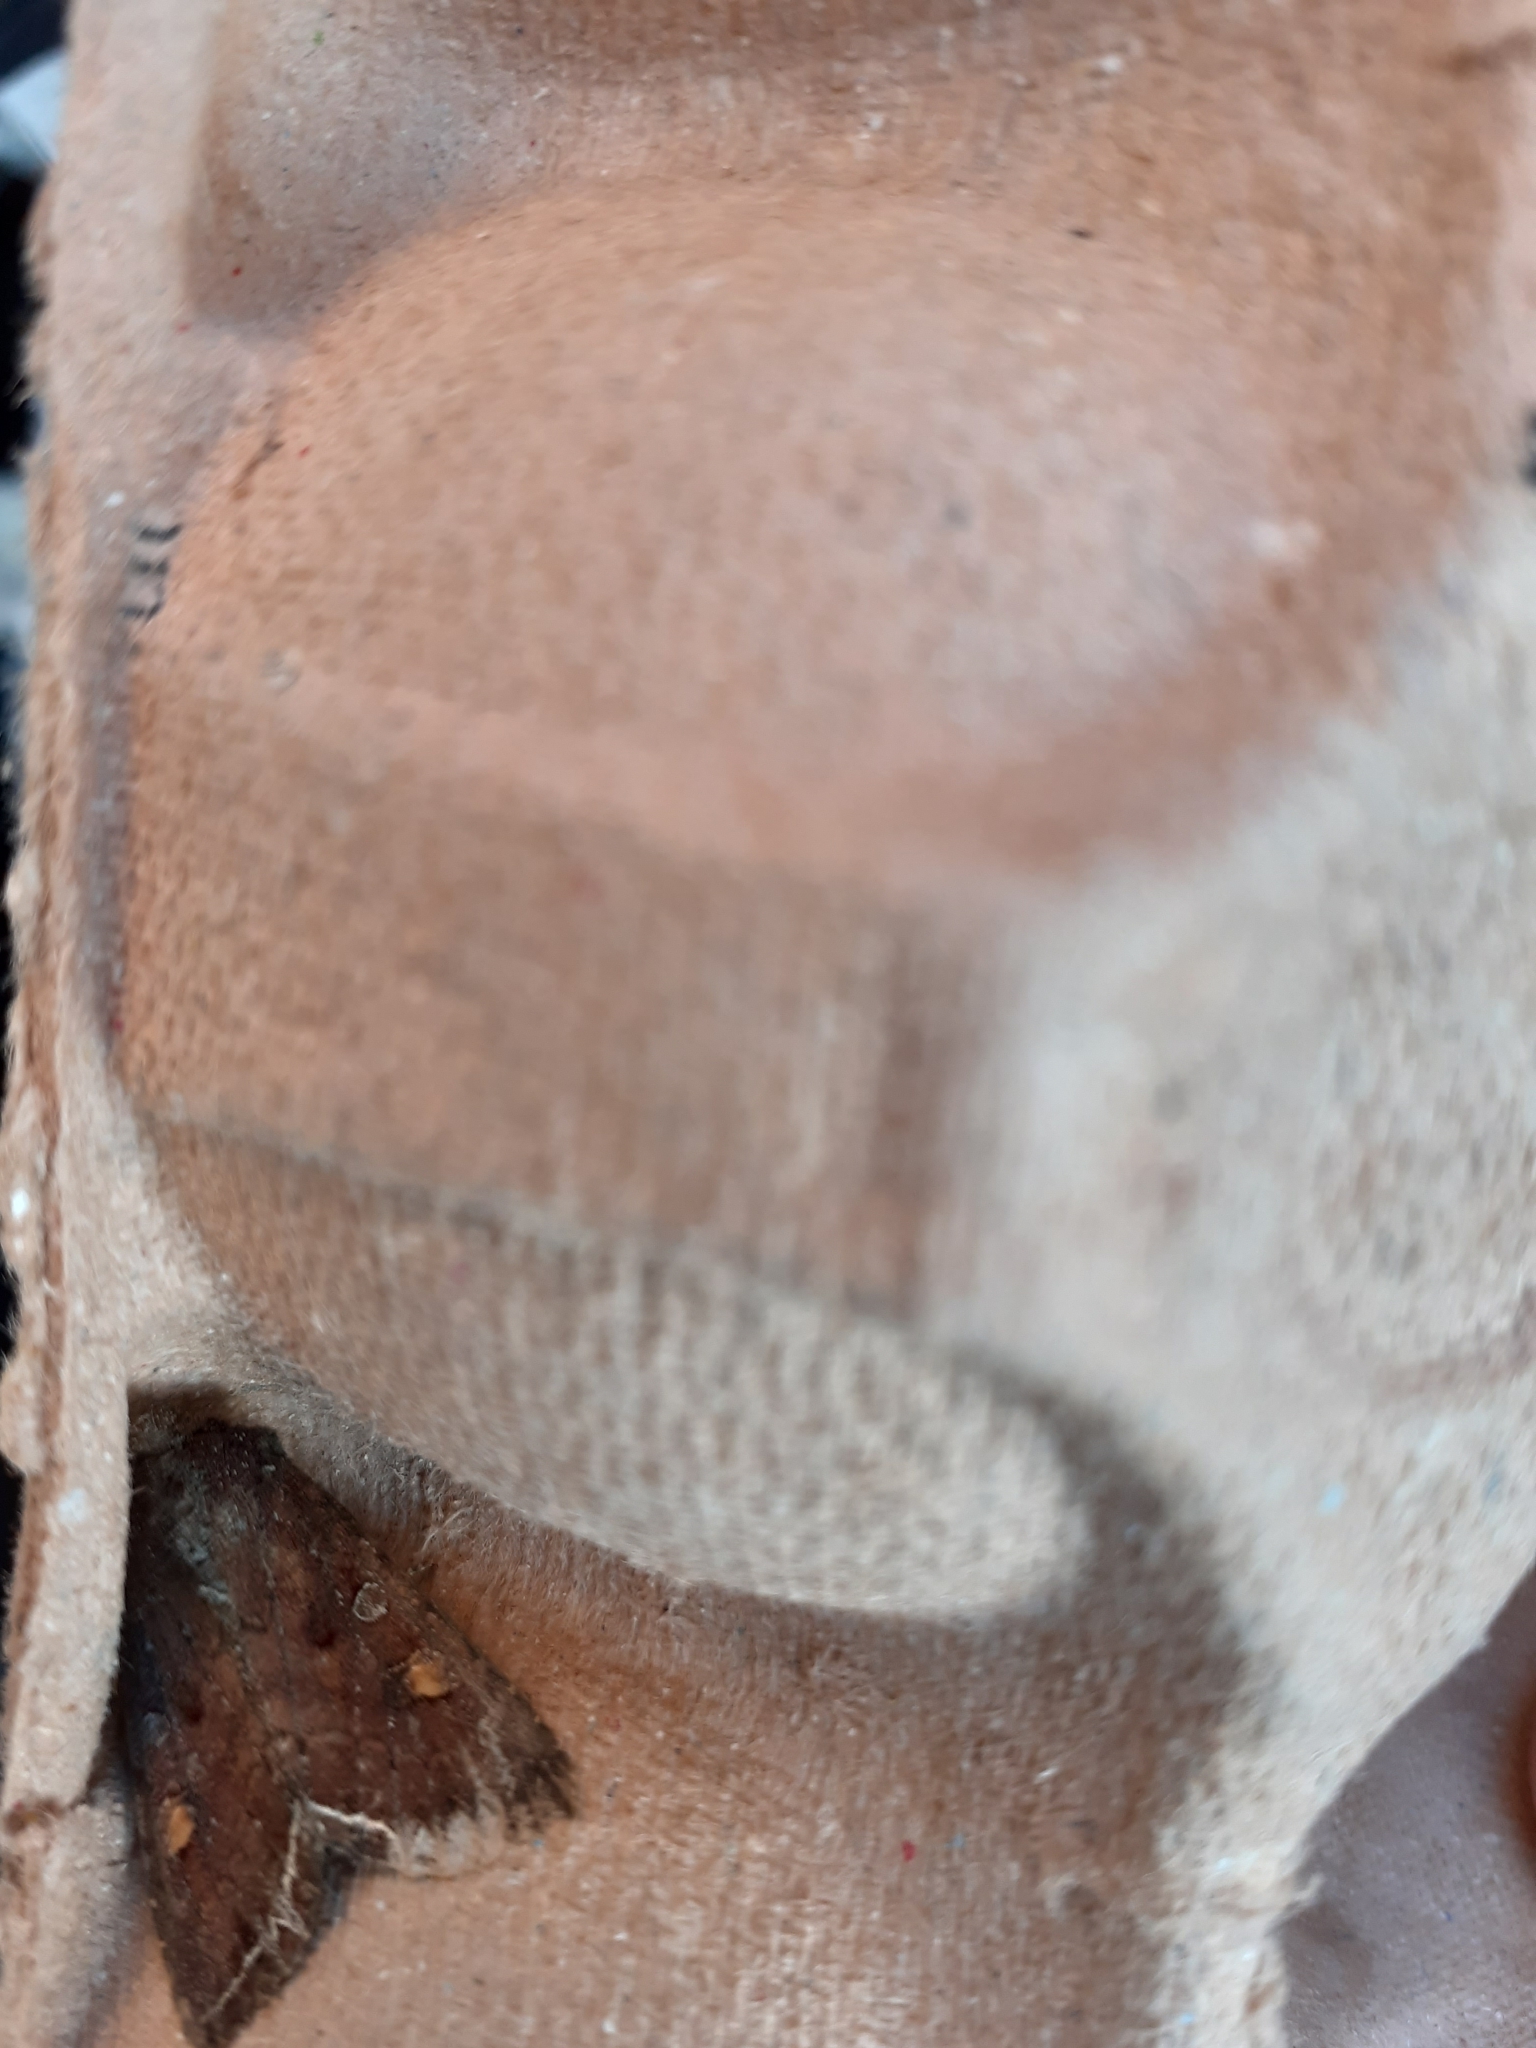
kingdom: Animalia
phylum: Arthropoda
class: Insecta
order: Lepidoptera
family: Noctuidae
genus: Lacanobia
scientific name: Lacanobia oleracea
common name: Bright-line brown-eye
